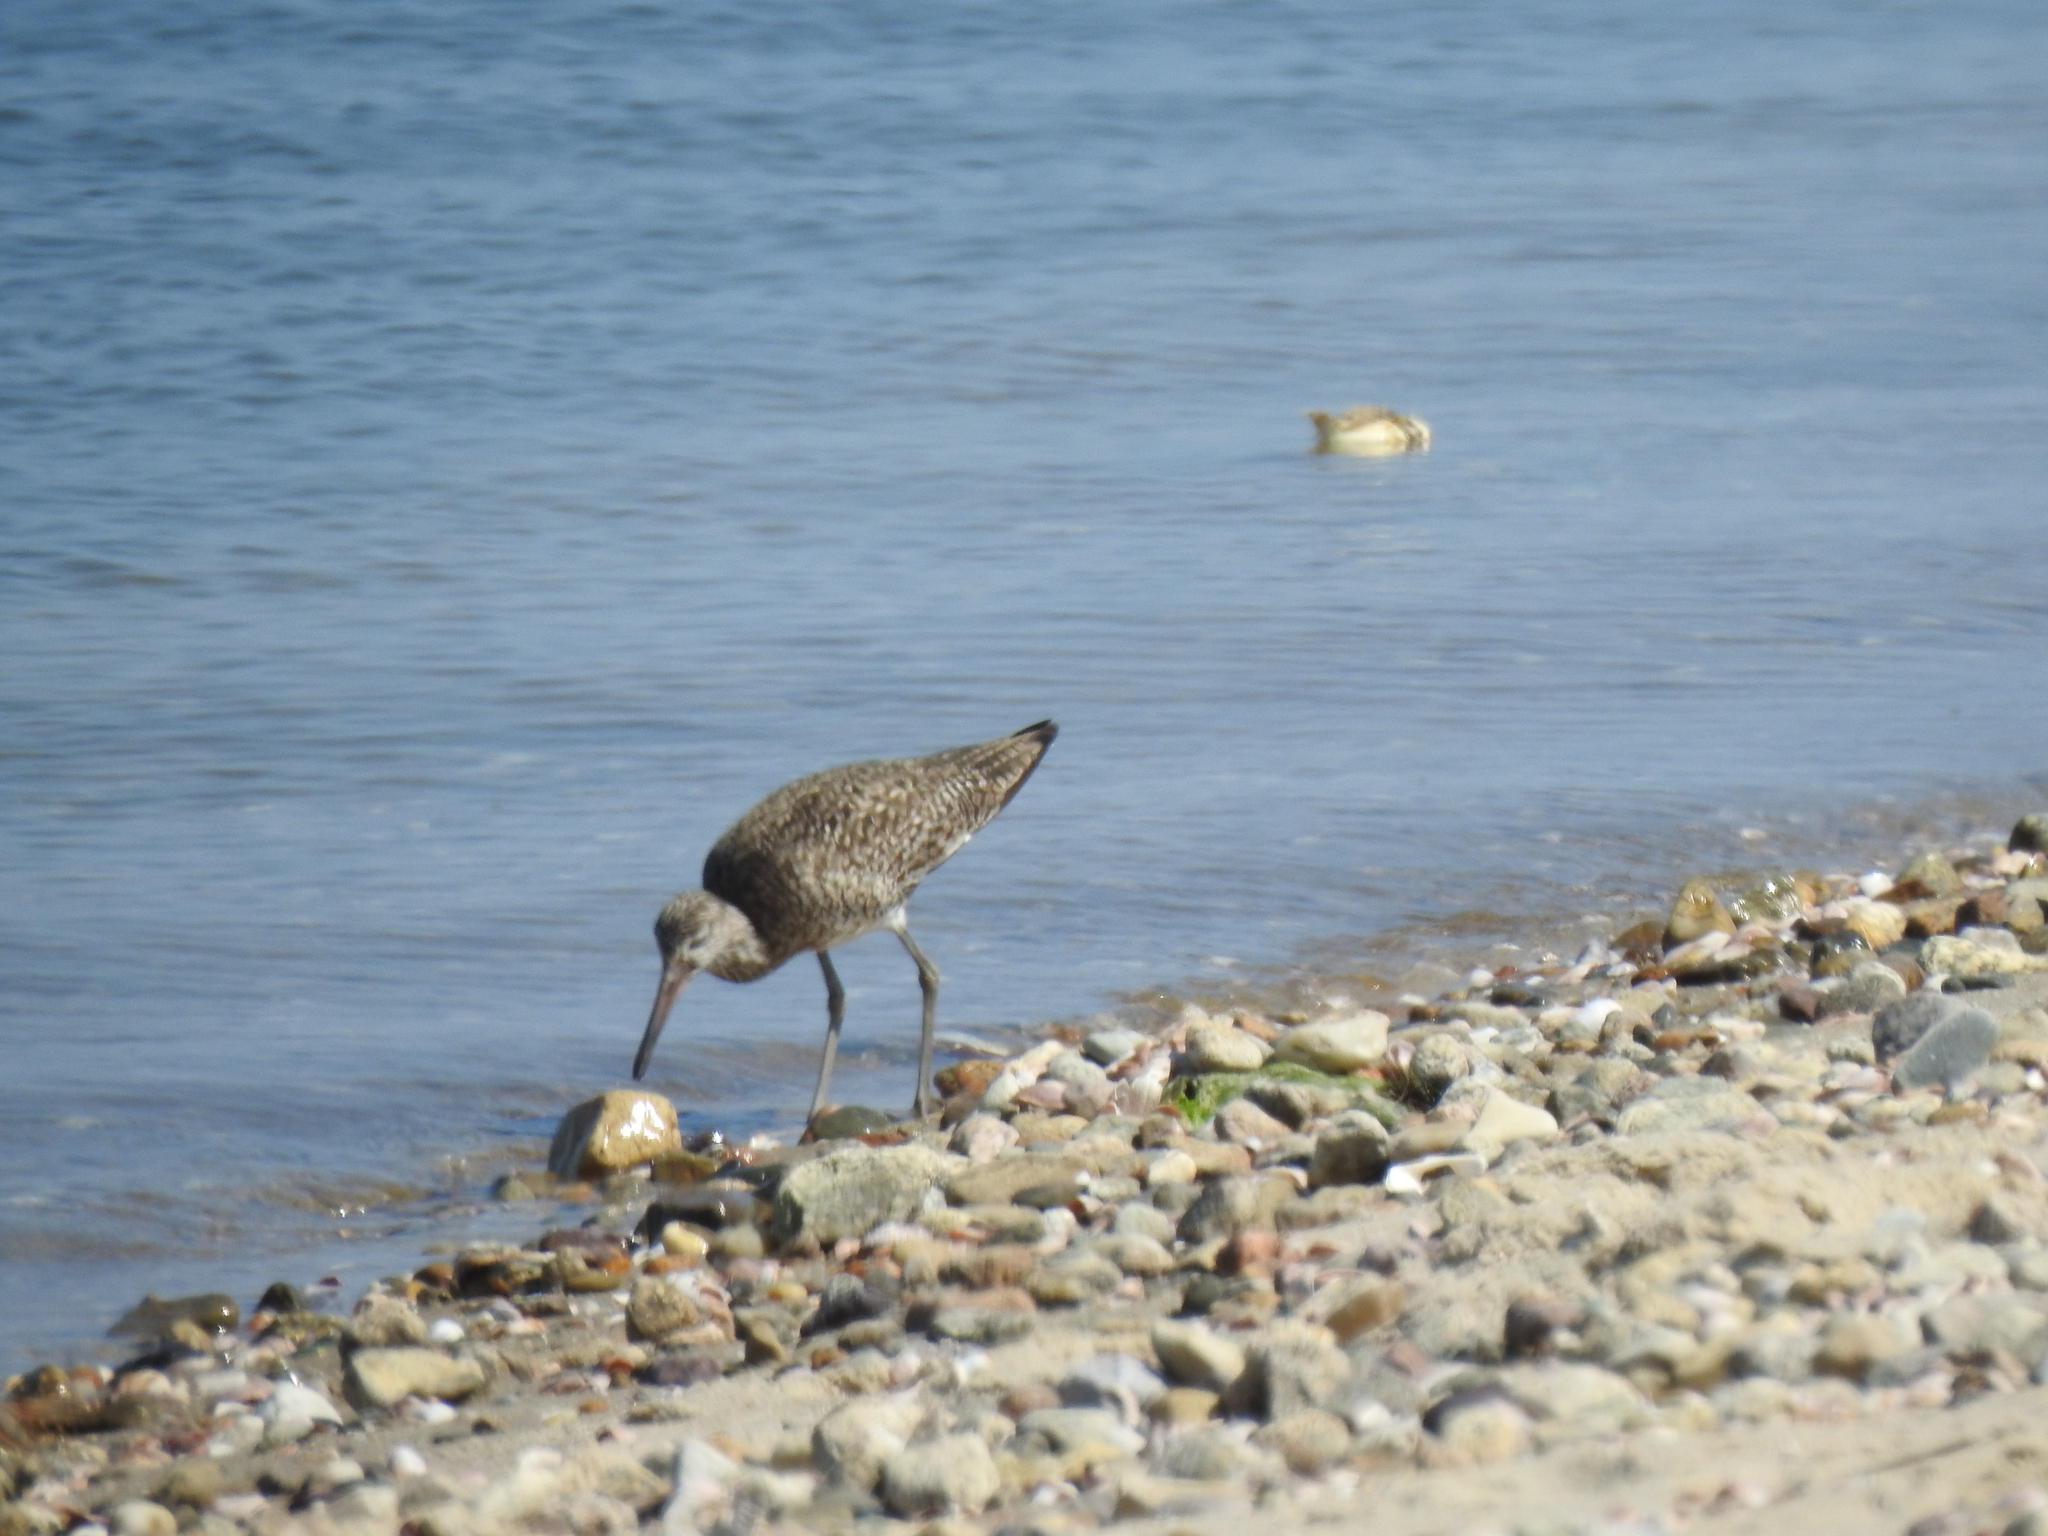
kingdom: Animalia
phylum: Chordata
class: Aves
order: Charadriiformes
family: Scolopacidae
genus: Tringa
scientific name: Tringa semipalmata
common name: Willet
